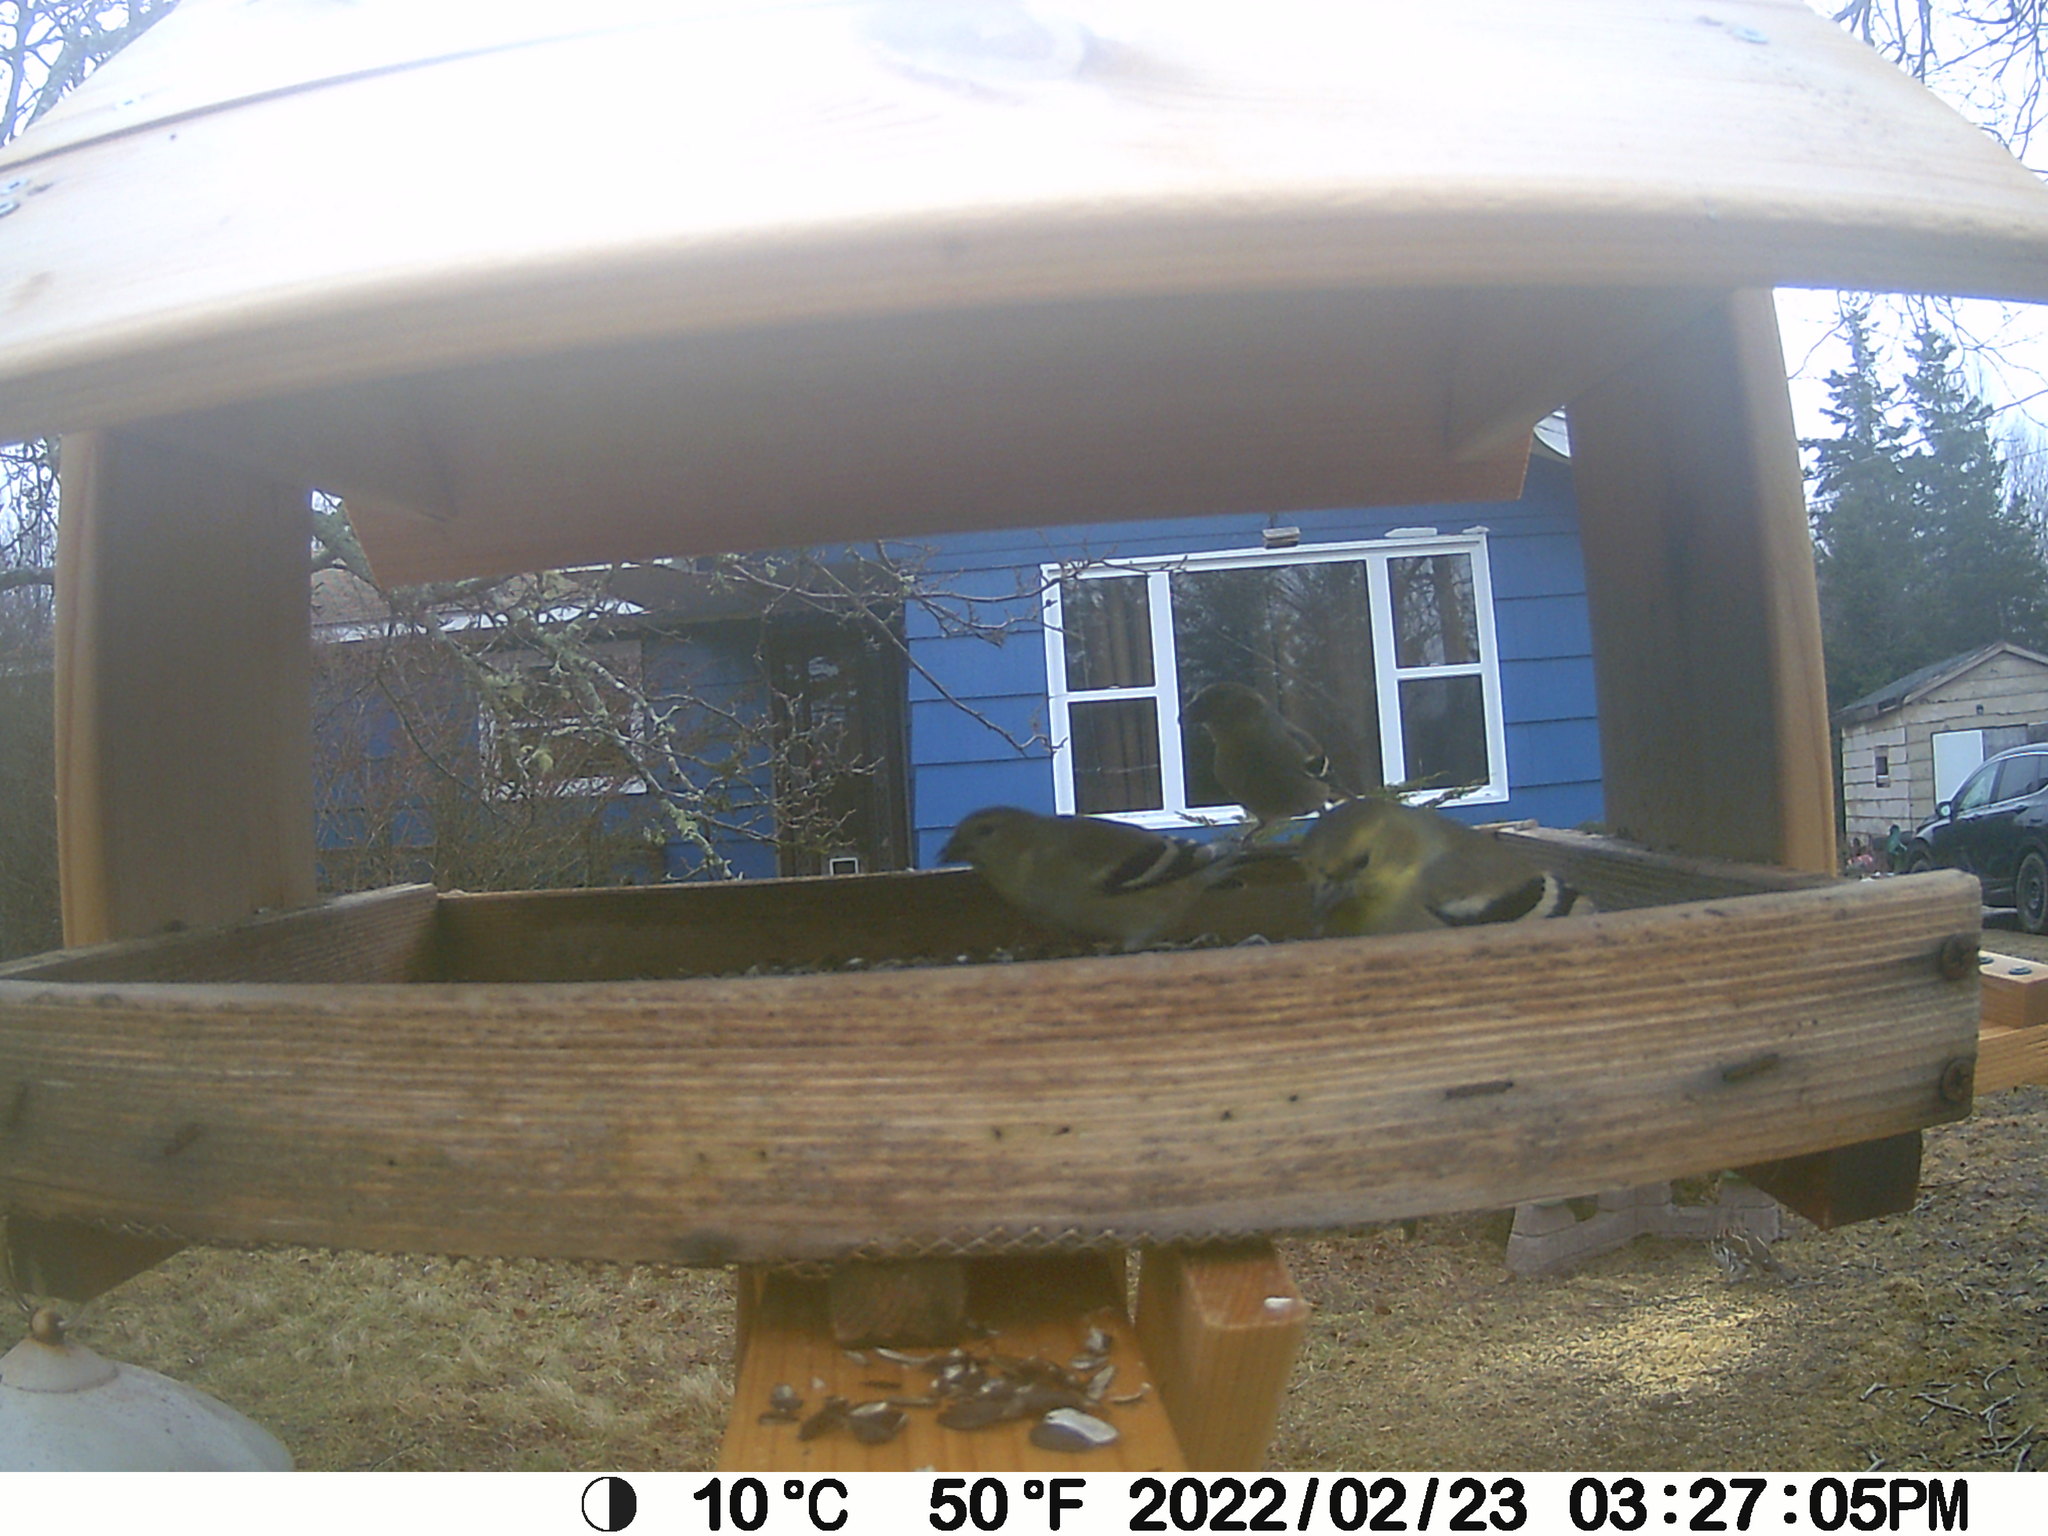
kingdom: Animalia
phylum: Chordata
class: Aves
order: Galliformes
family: Phasianidae
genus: Bonasa
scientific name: Bonasa umbellus
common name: Ruffed grouse
